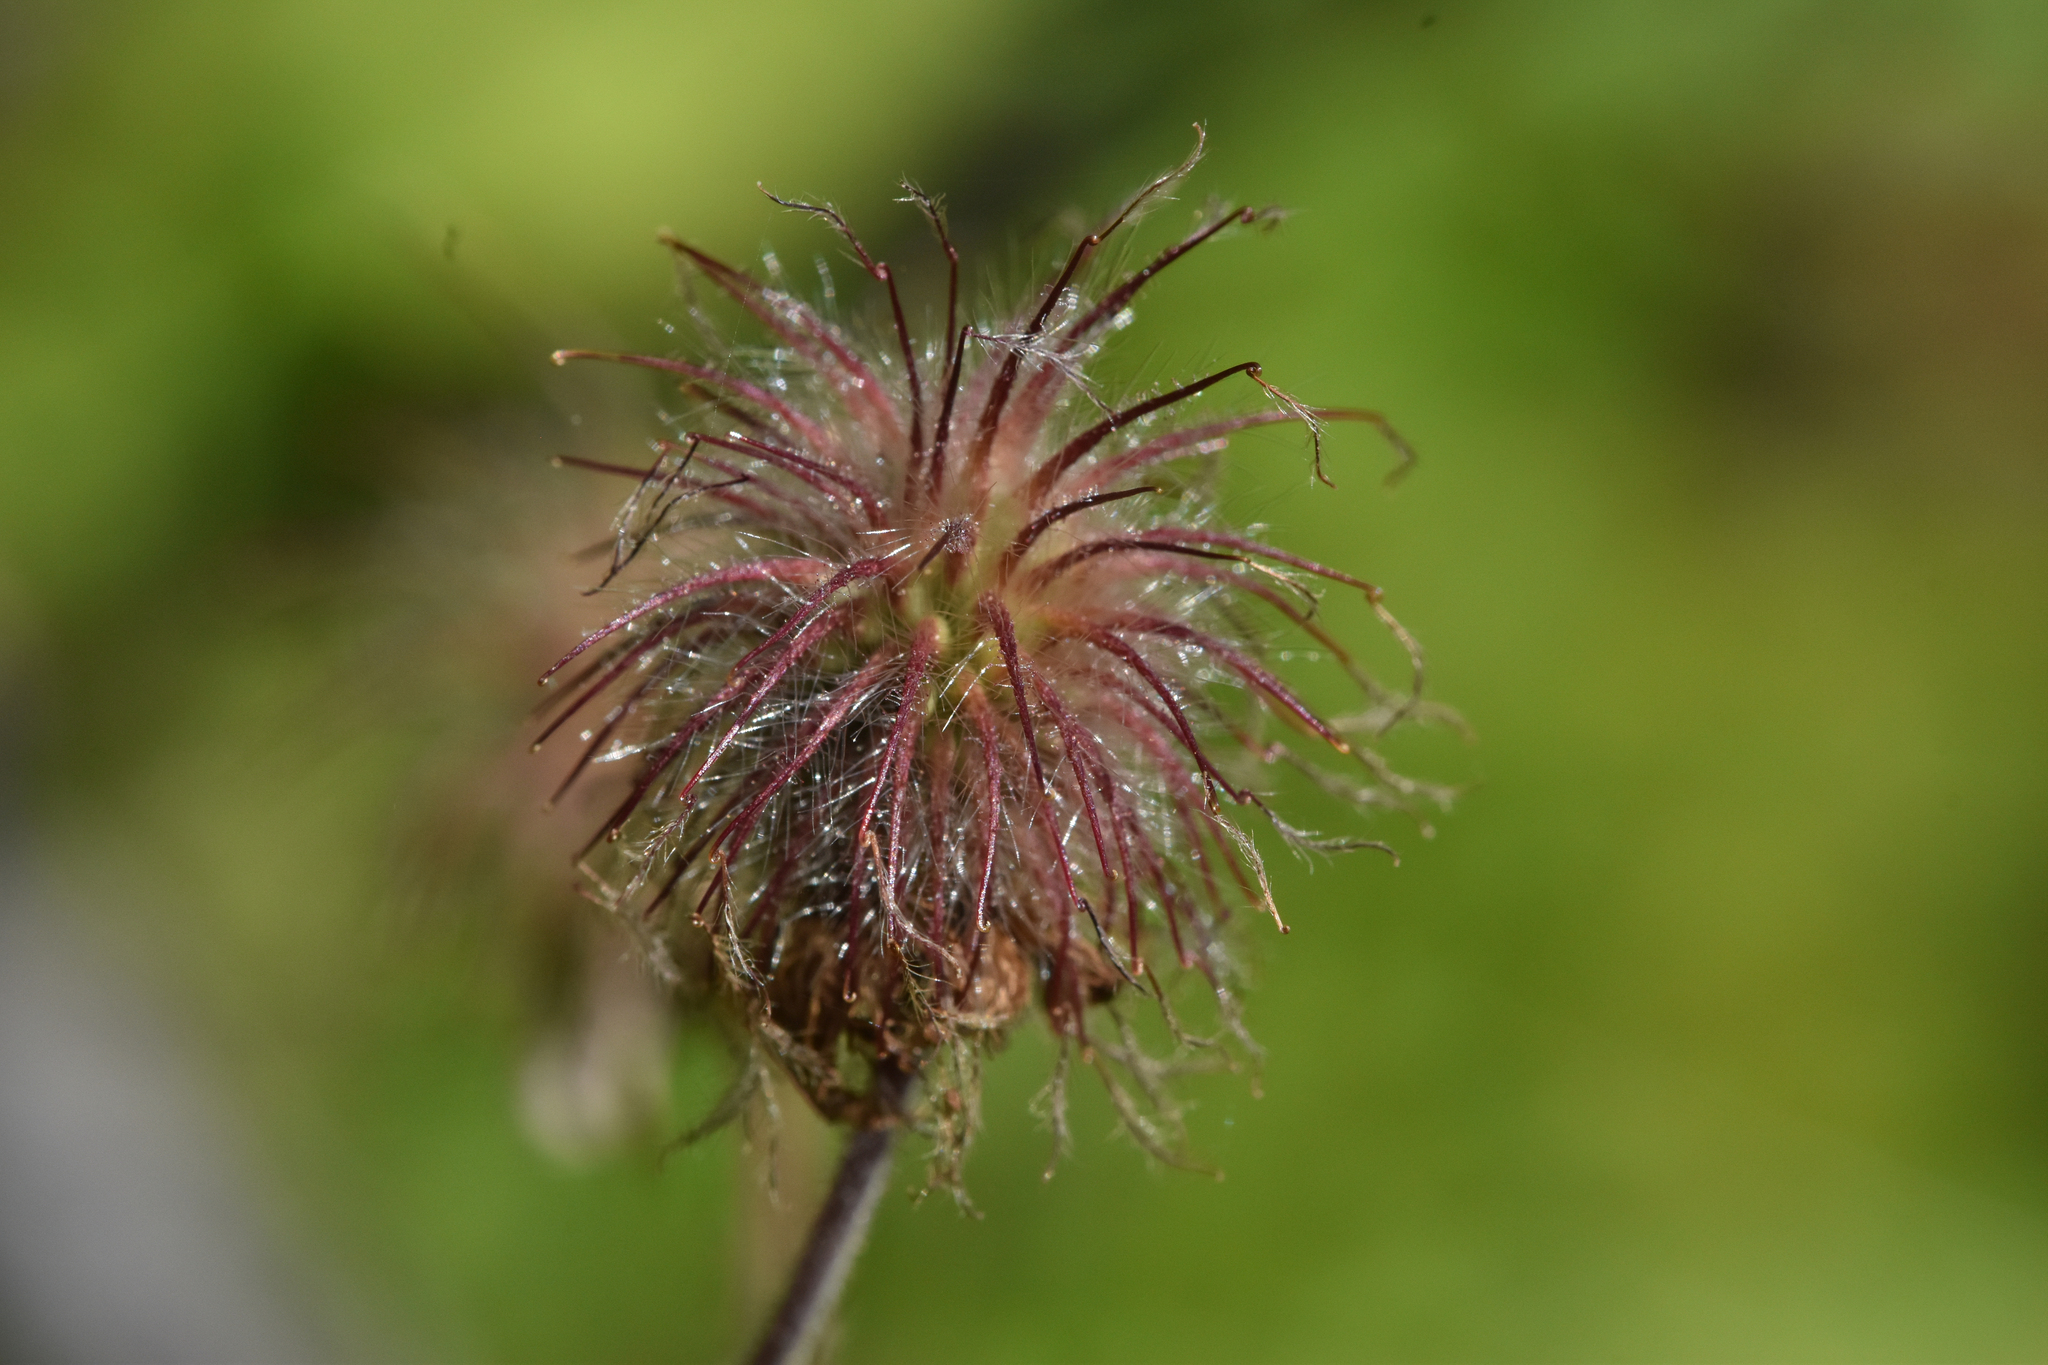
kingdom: Plantae
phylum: Tracheophyta
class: Magnoliopsida
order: Rosales
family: Rosaceae
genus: Geum
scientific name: Geum rivale
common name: Water avens
